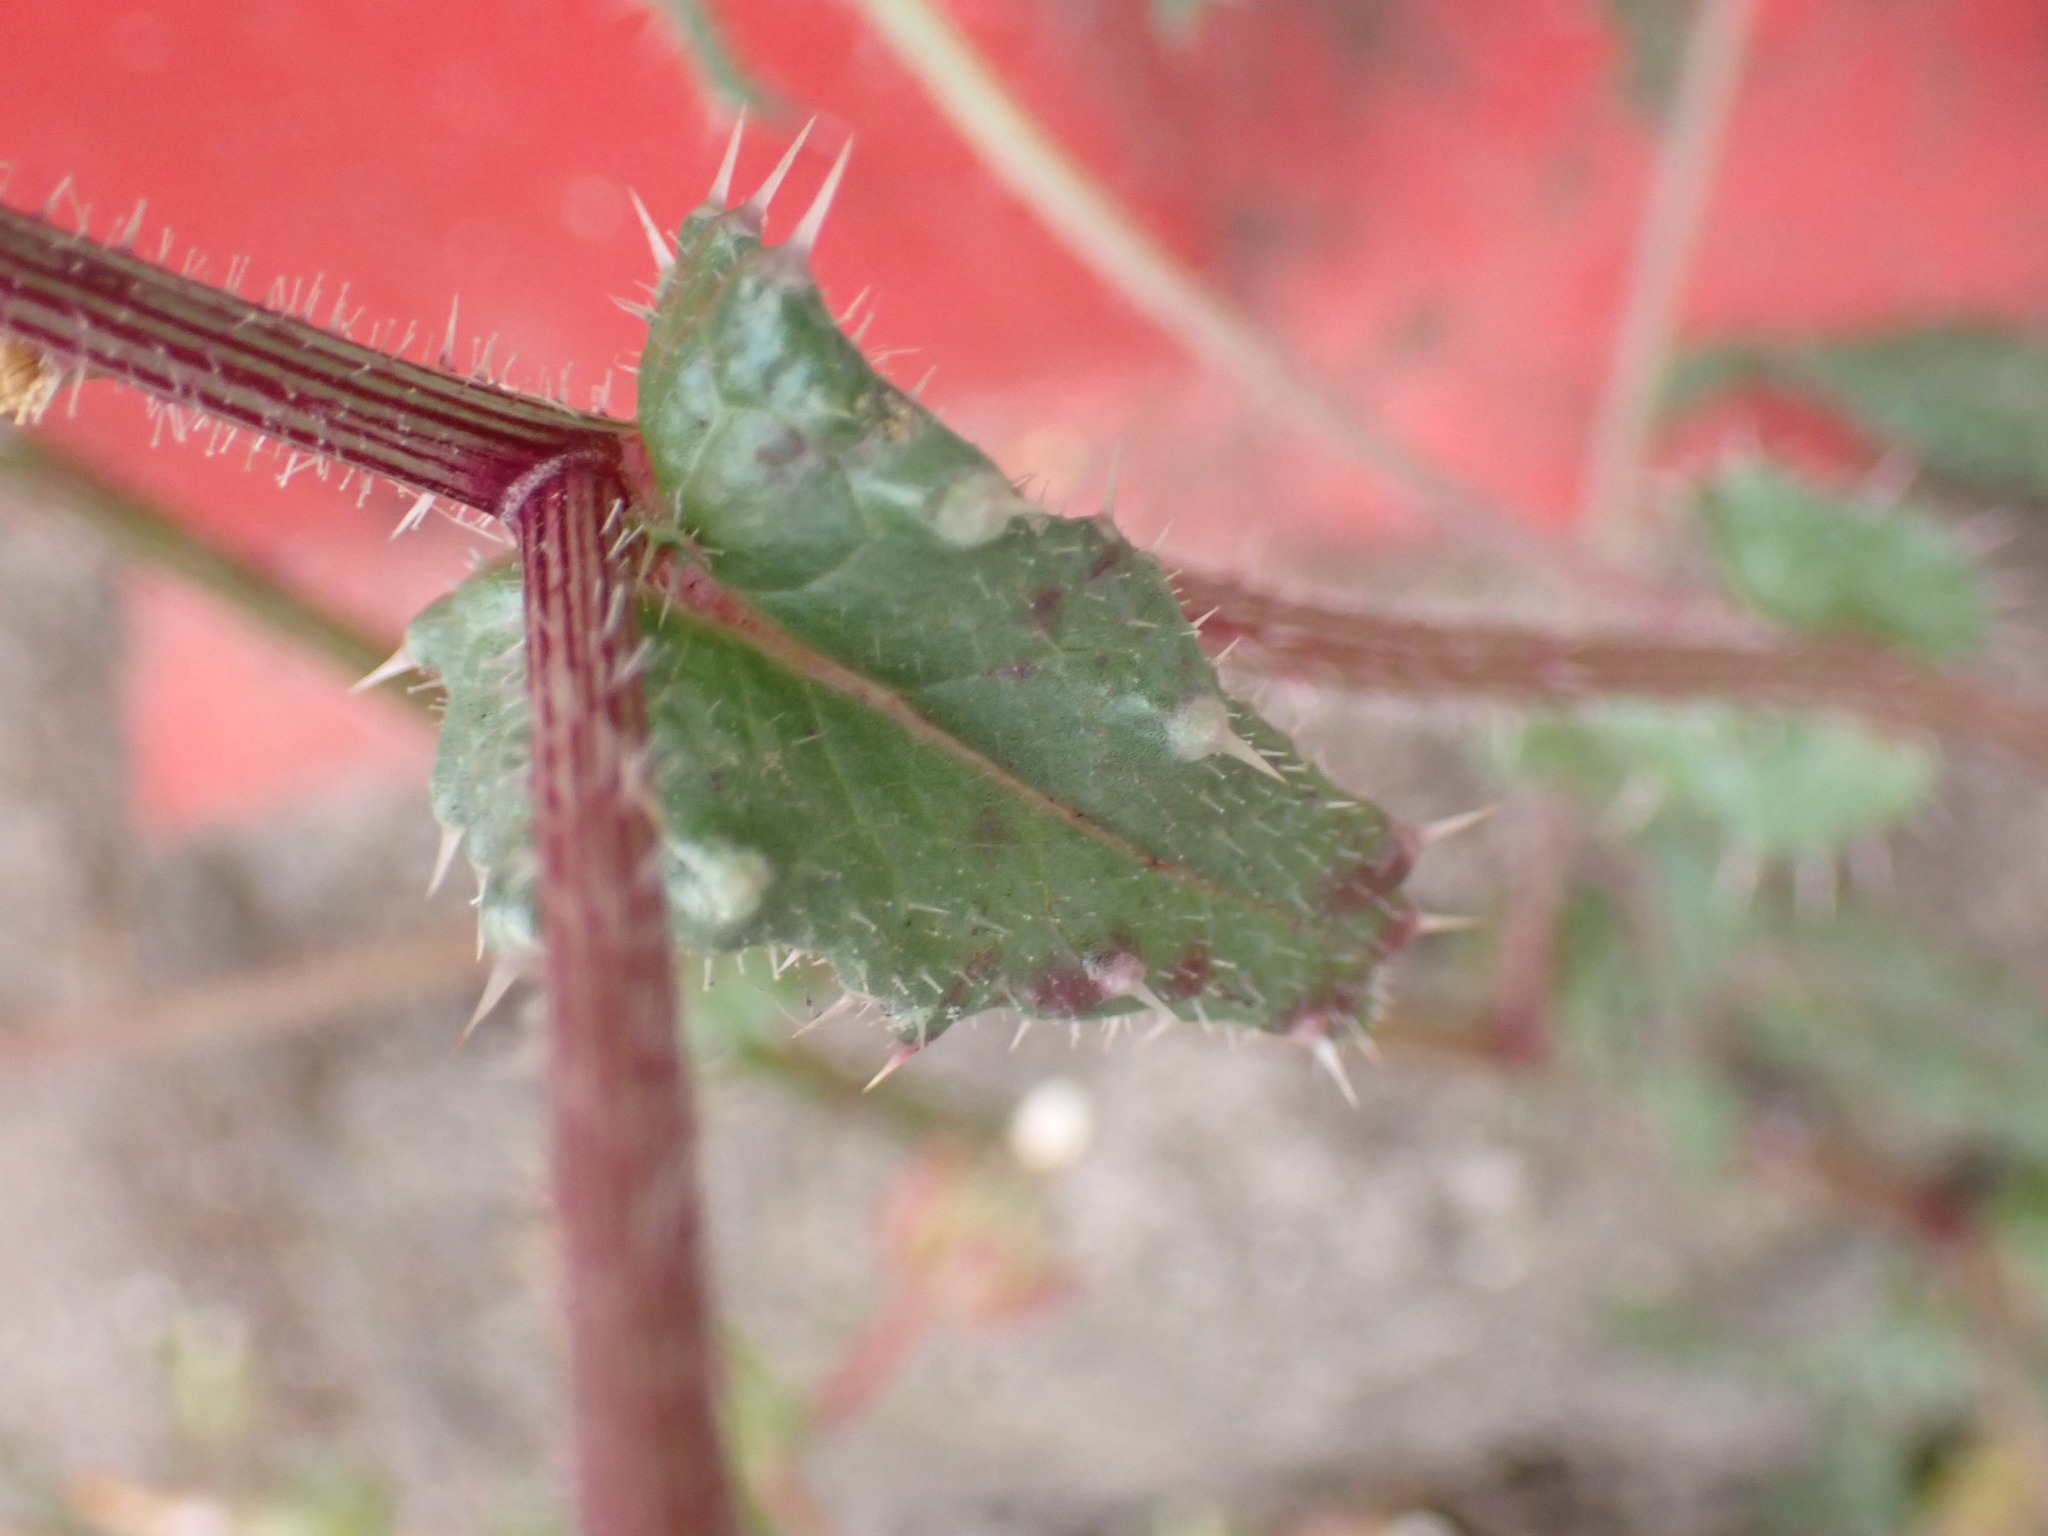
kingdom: Plantae
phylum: Tracheophyta
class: Magnoliopsida
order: Asterales
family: Asteraceae
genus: Helminthotheca
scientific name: Helminthotheca echioides
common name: Ox-tongue
